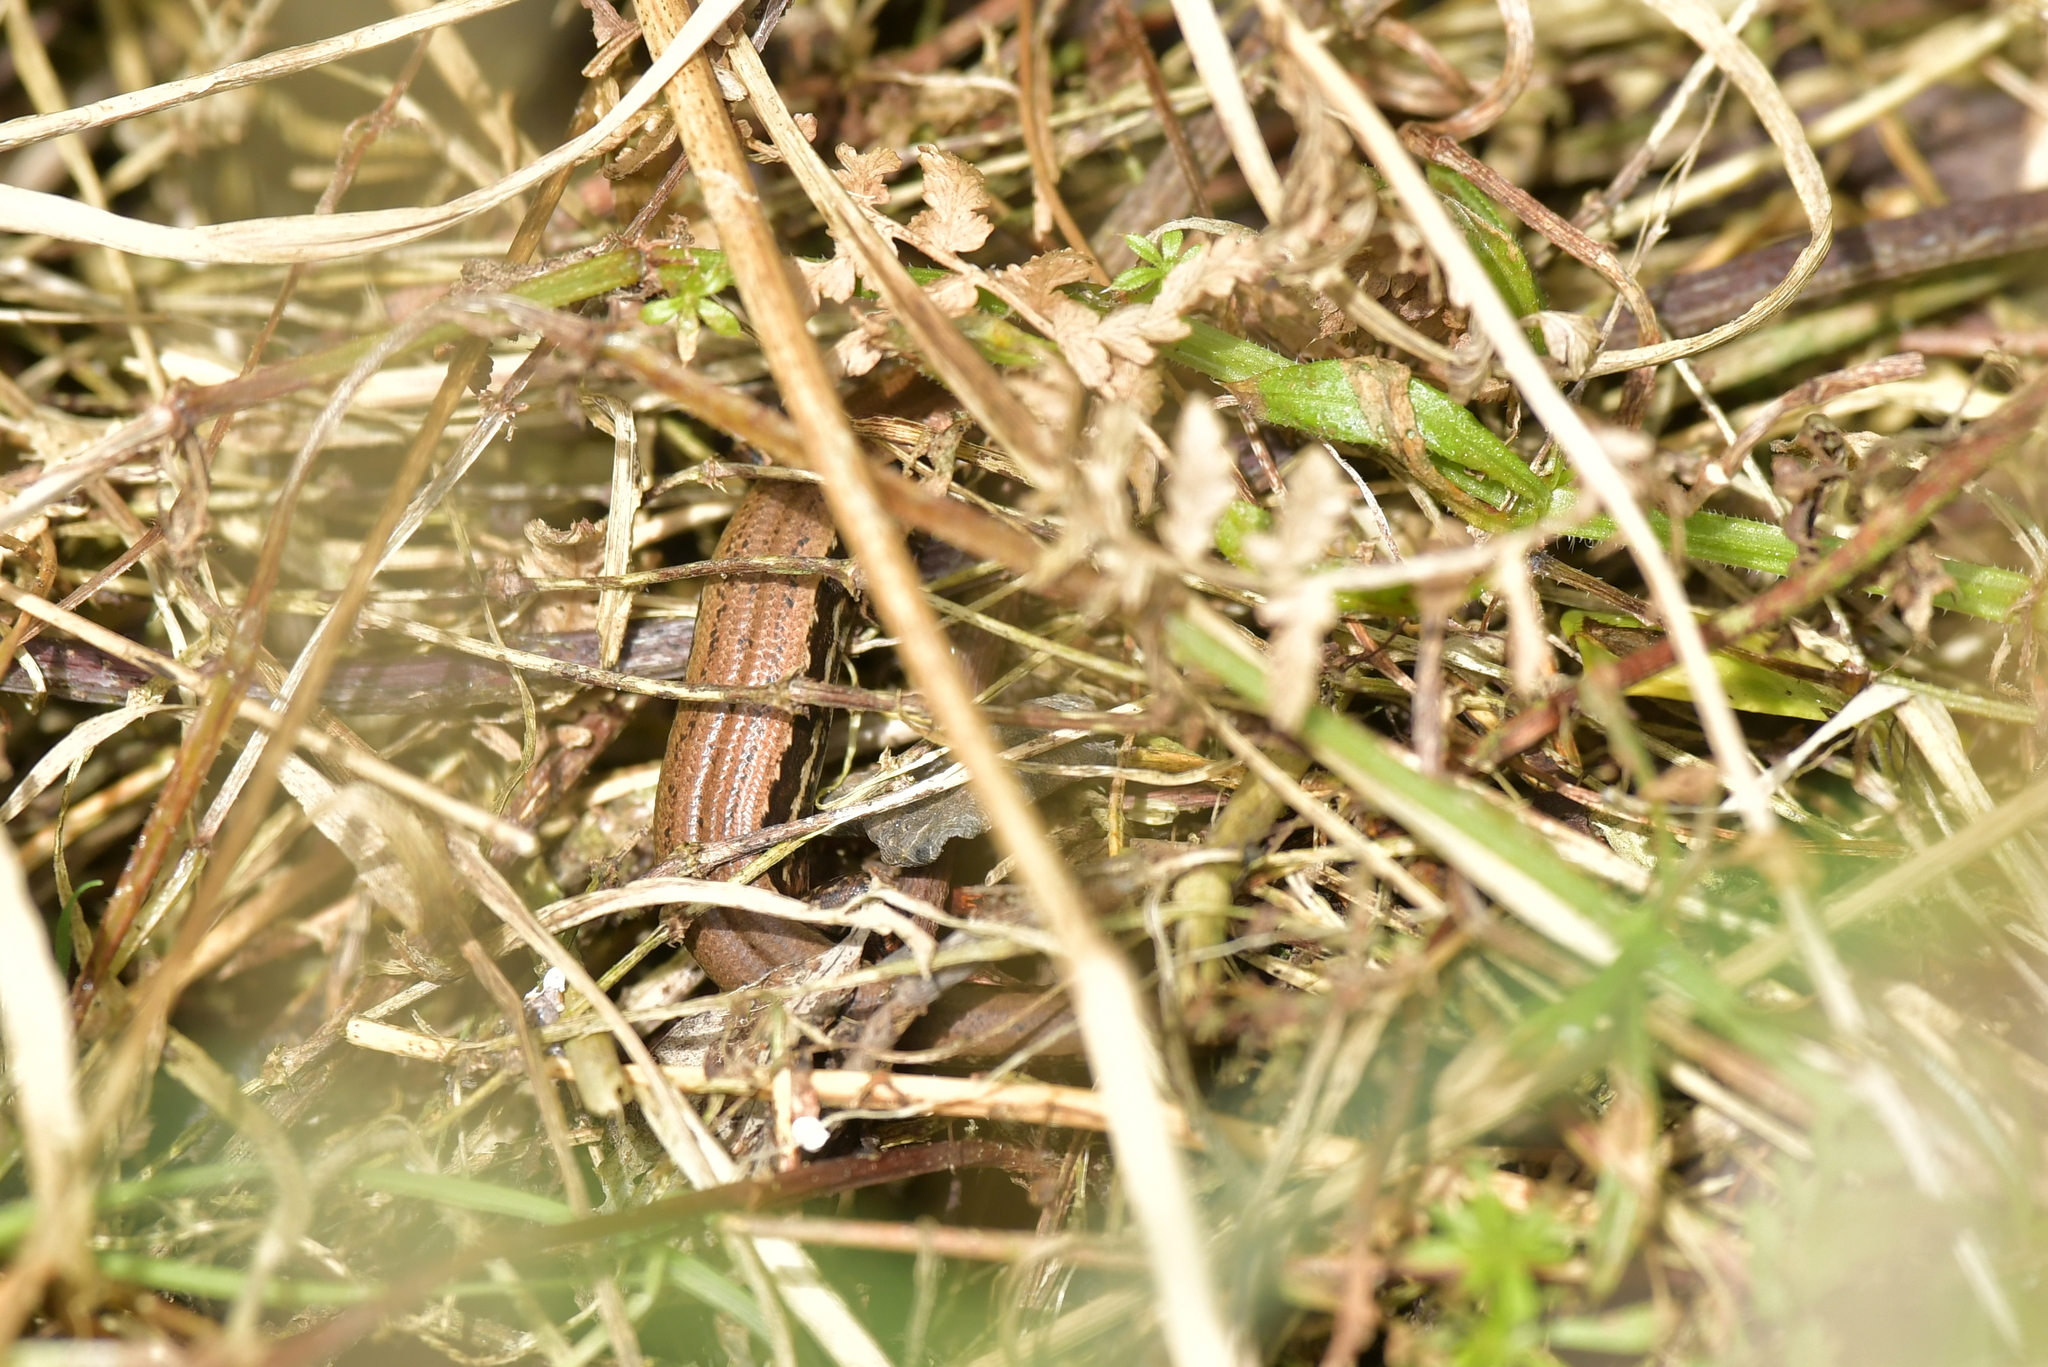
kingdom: Animalia
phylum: Chordata
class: Squamata
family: Scincidae
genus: Oligosoma
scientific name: Oligosoma nigriplantare
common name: Chathams skink
